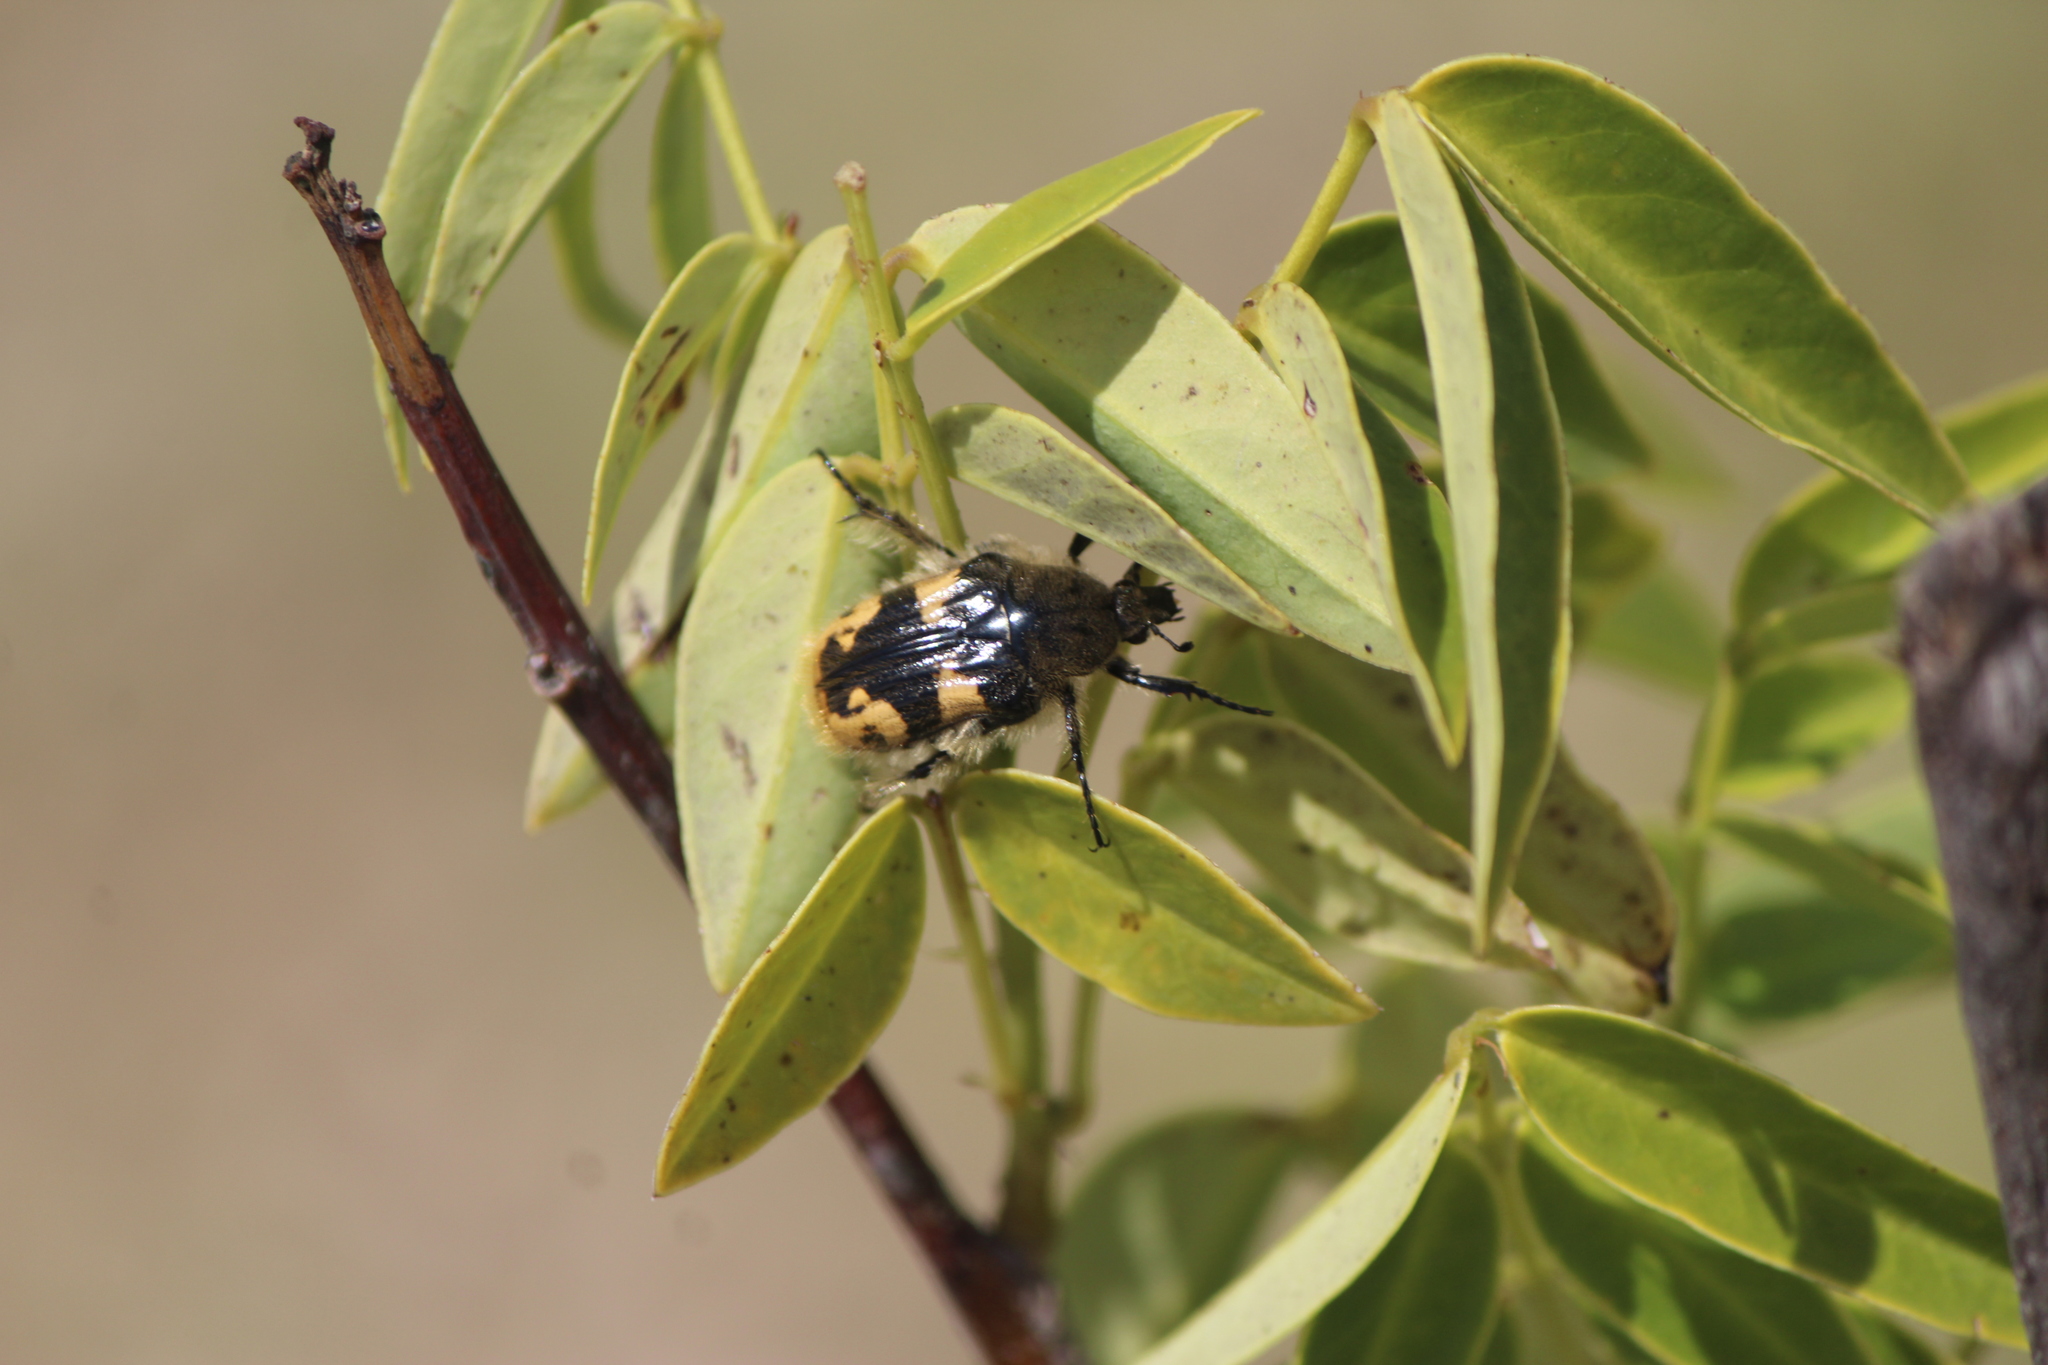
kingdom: Animalia
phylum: Arthropoda
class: Insecta
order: Coleoptera
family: Scarabaeidae
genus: Euphoria
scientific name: Euphoria basalis
